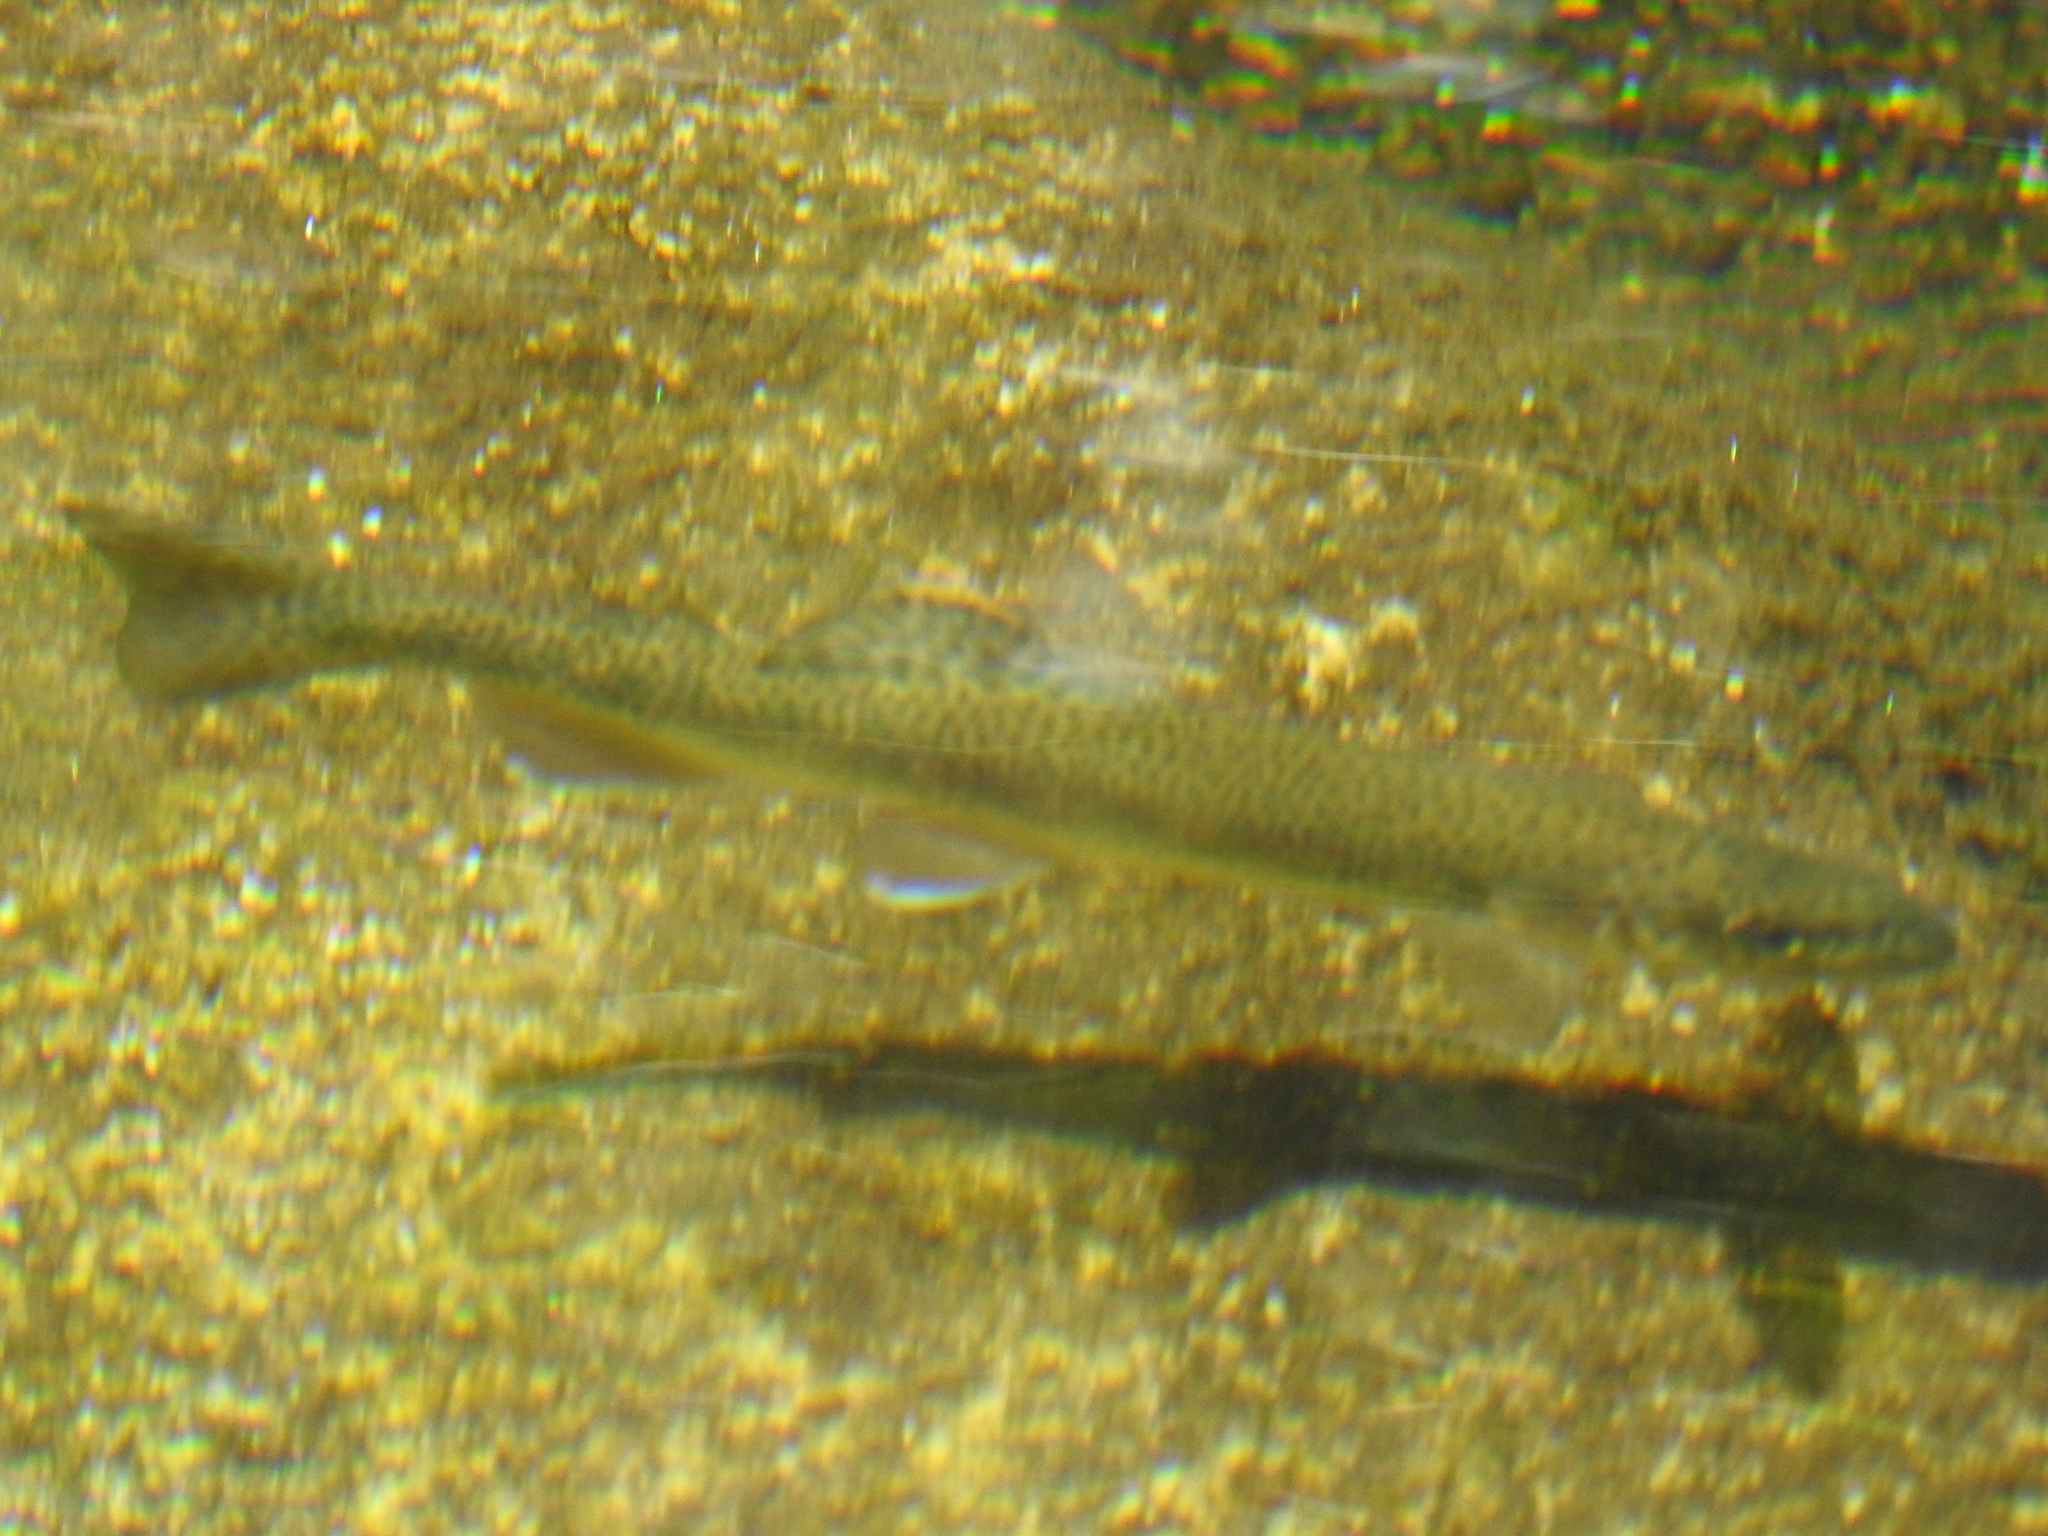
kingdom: Animalia
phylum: Chordata
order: Salmoniformes
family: Salmonidae
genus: Oncorhynchus
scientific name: Oncorhynchus
